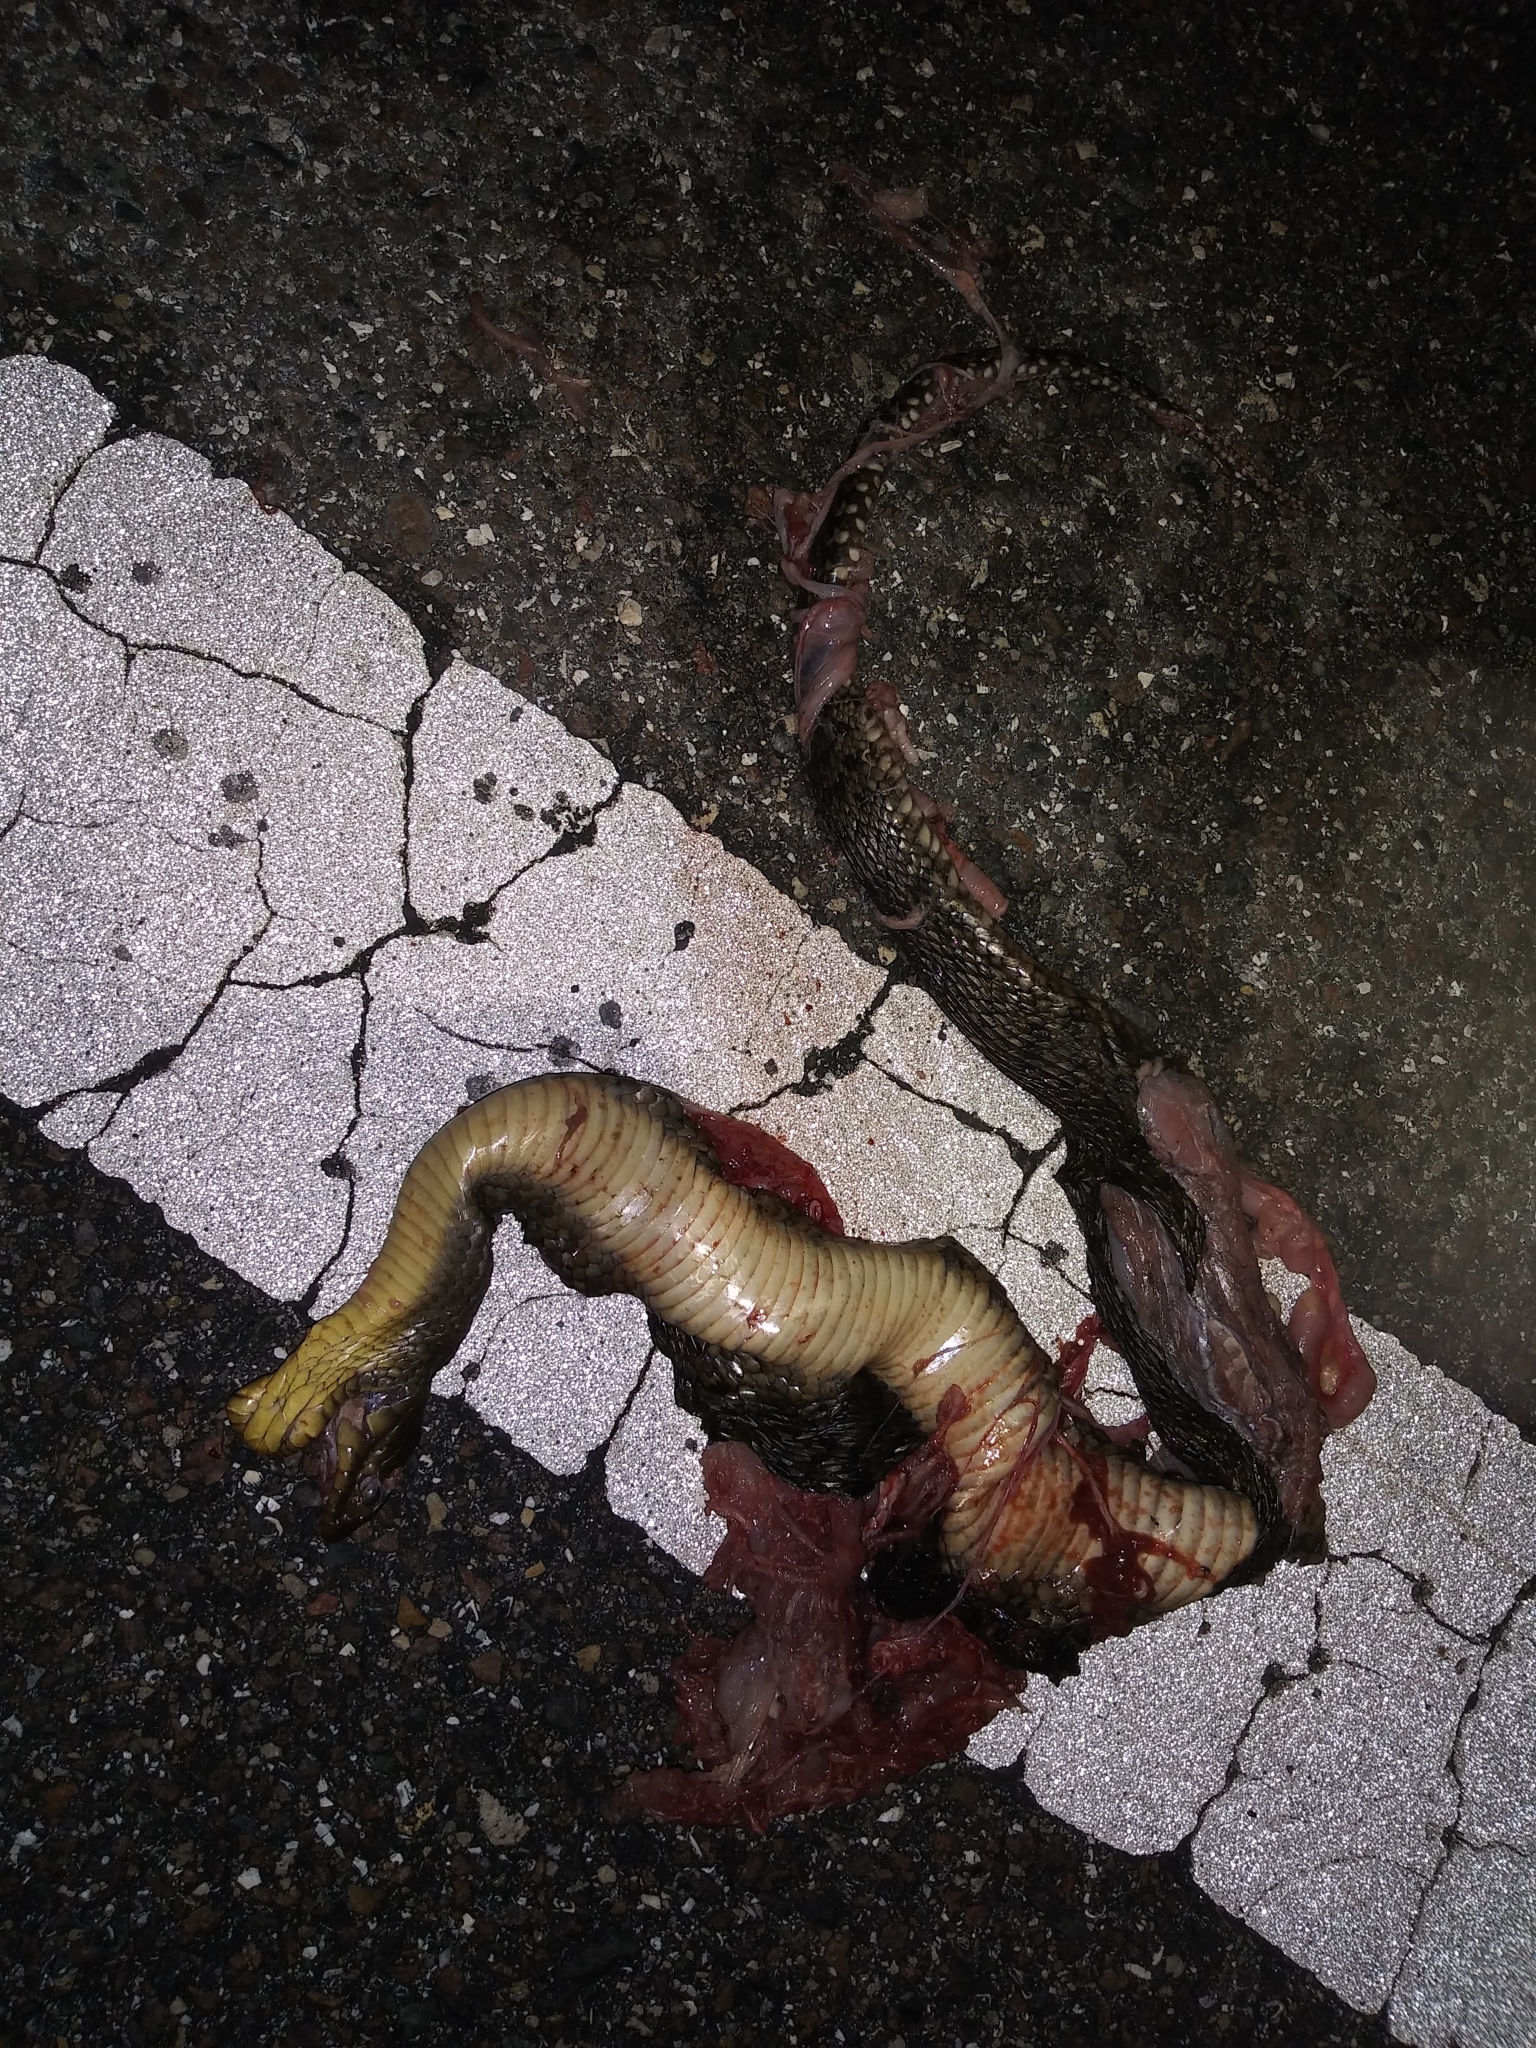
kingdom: Animalia
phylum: Chordata
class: Squamata
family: Colubridae
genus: Nerodia
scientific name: Nerodia floridana
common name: Florida green watersnake
